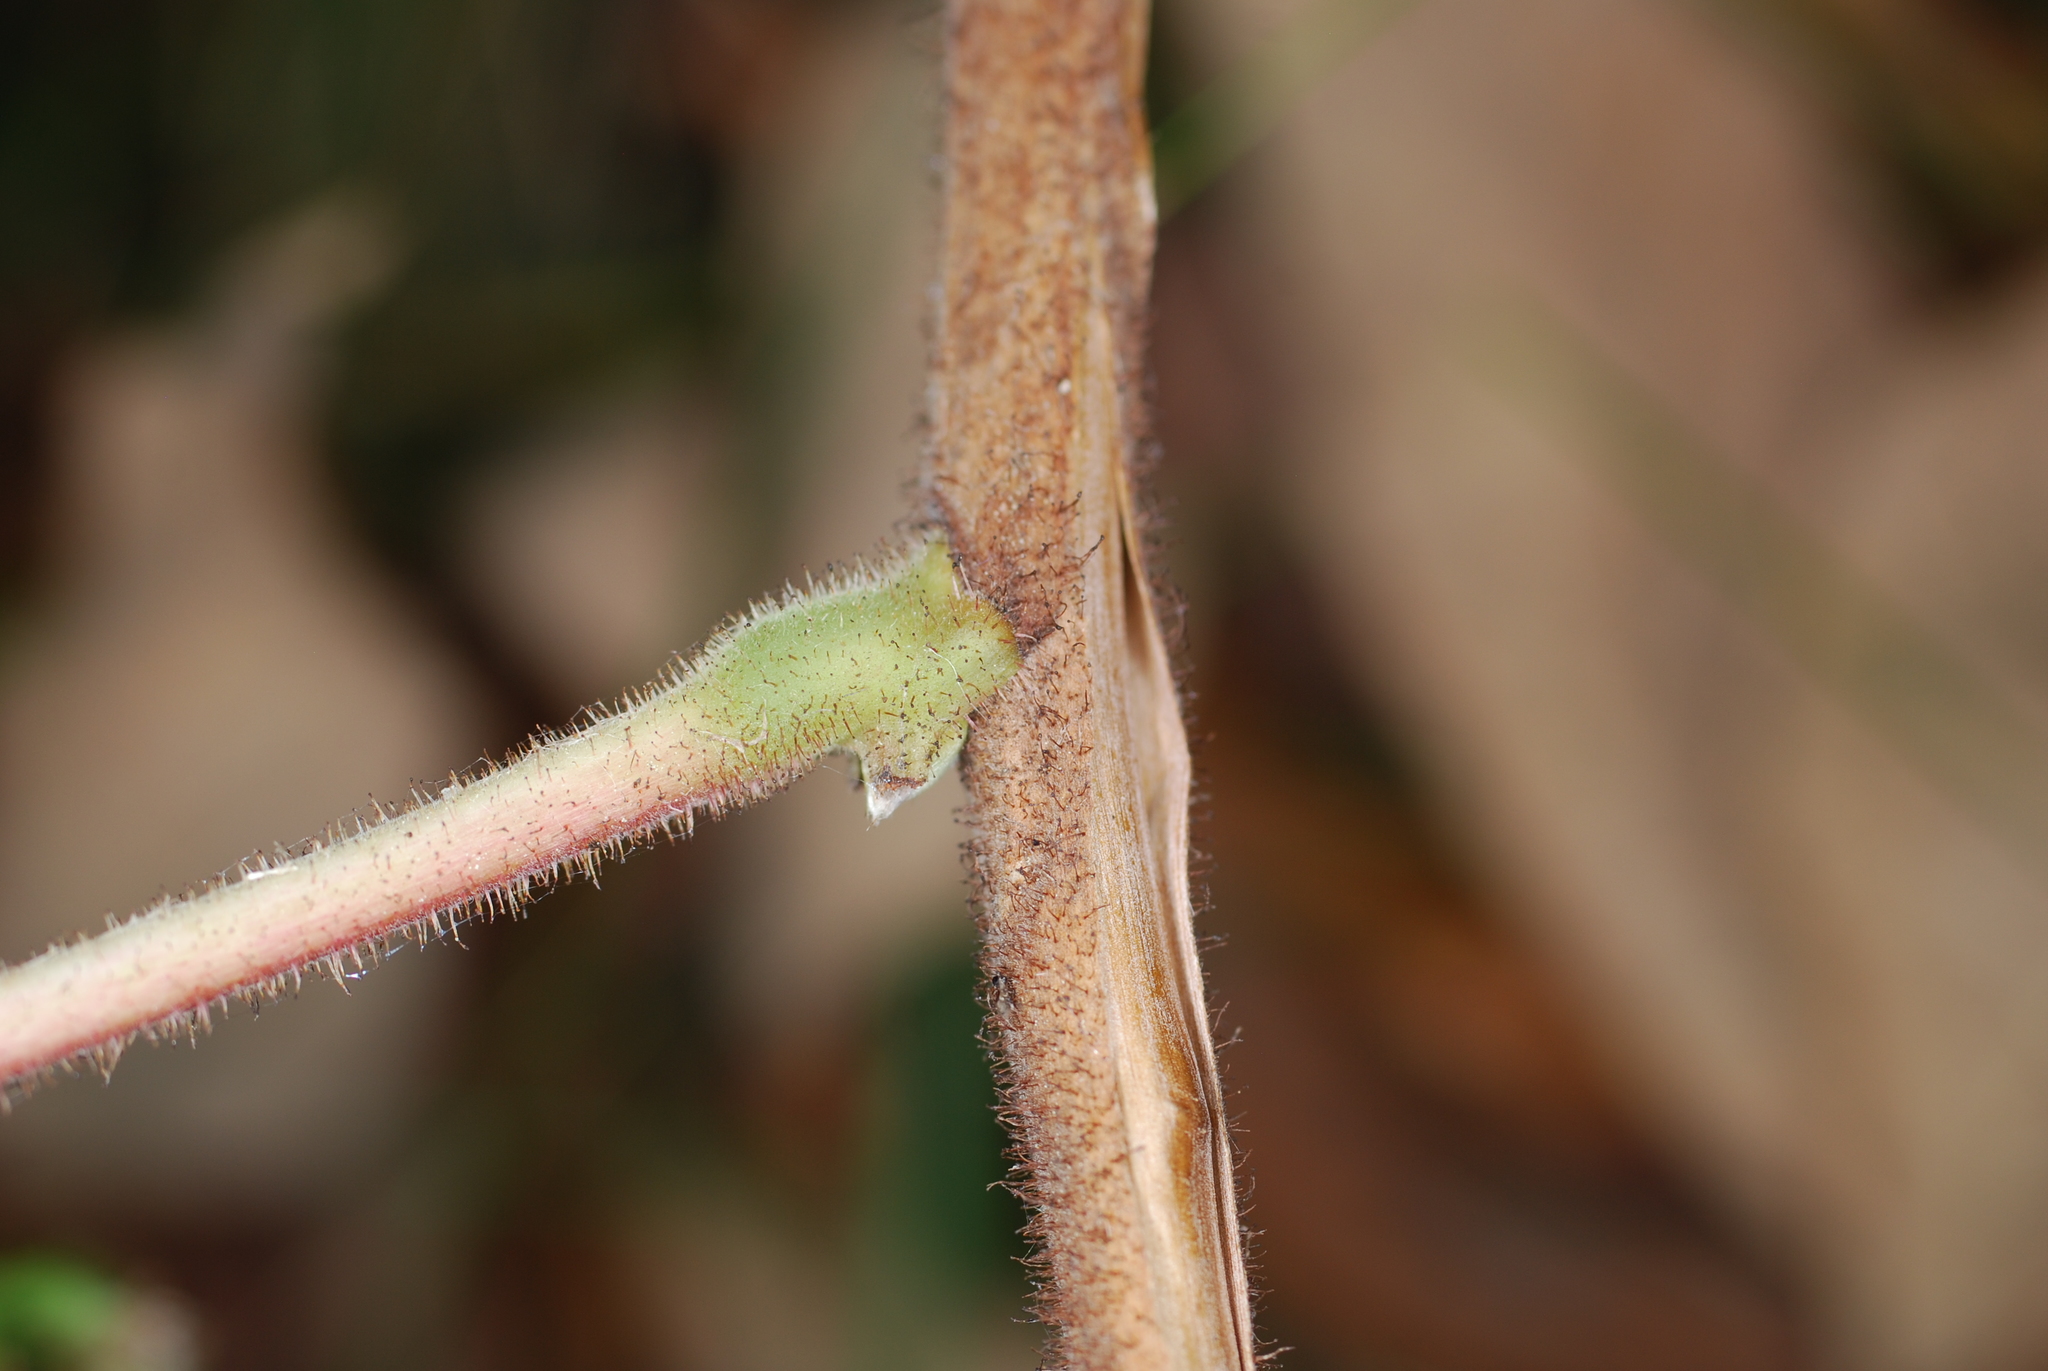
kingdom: Plantae
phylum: Tracheophyta
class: Magnoliopsida
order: Rosales
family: Rosaceae
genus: Rubus
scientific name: Rubus odoratus
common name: Purple-flowered raspberry
